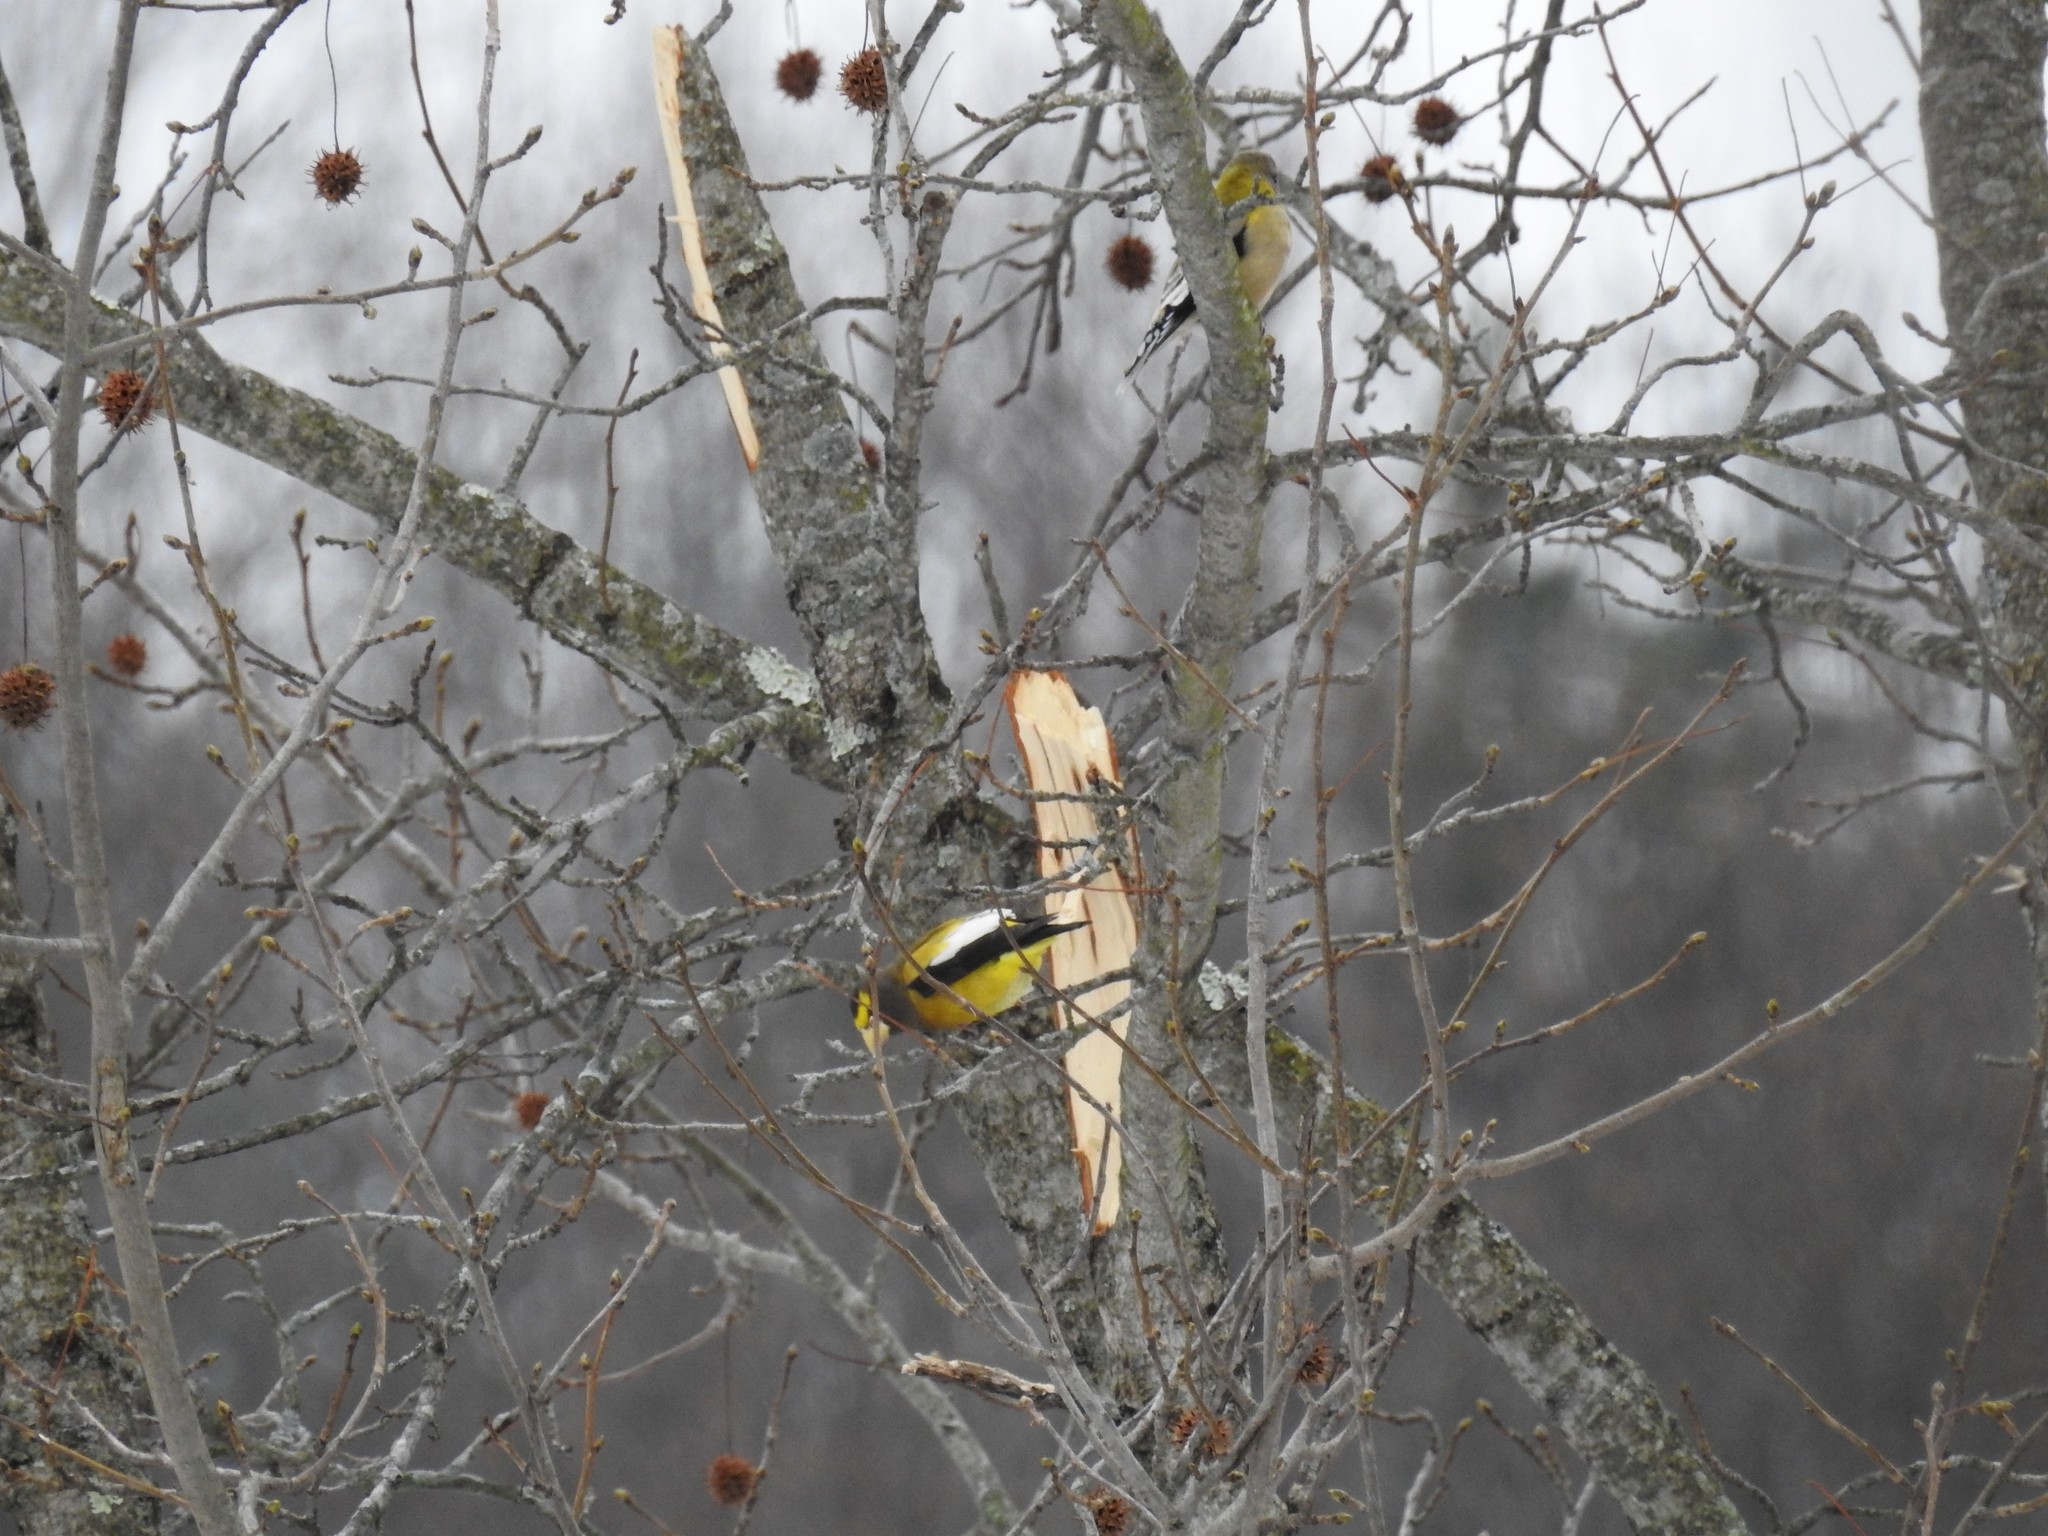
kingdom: Animalia
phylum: Chordata
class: Aves
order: Passeriformes
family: Fringillidae
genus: Hesperiphona
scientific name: Hesperiphona vespertina
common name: Evening grosbeak
